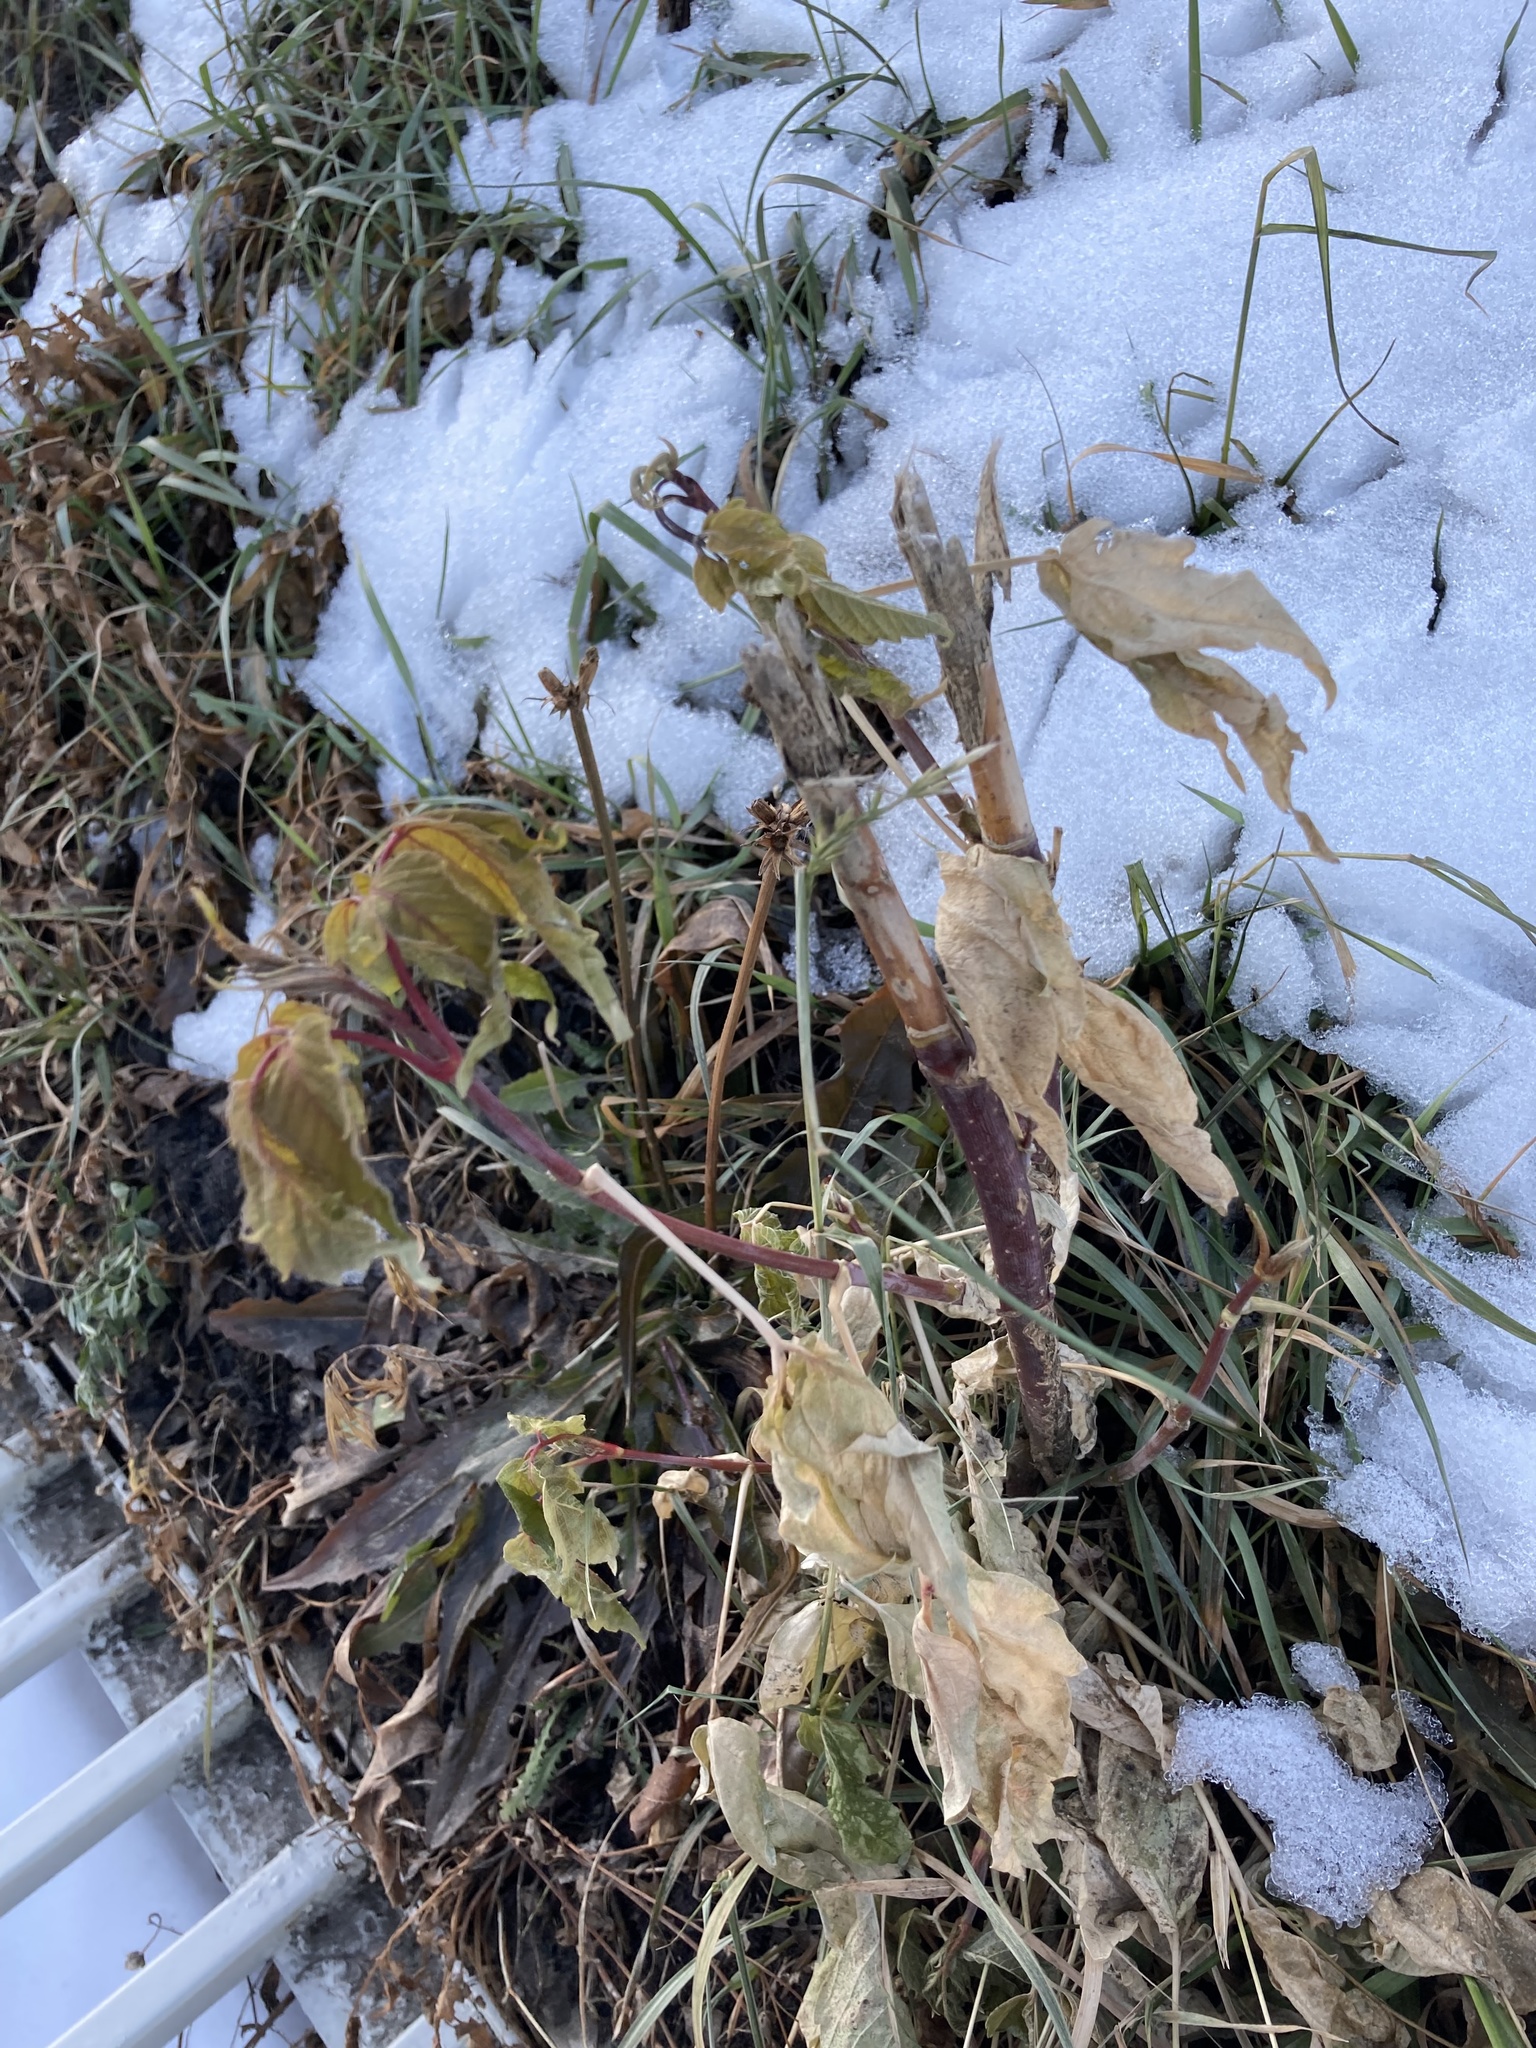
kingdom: Plantae
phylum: Tracheophyta
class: Magnoliopsida
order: Sapindales
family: Sapindaceae
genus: Acer
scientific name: Acer negundo
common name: Ashleaf maple
